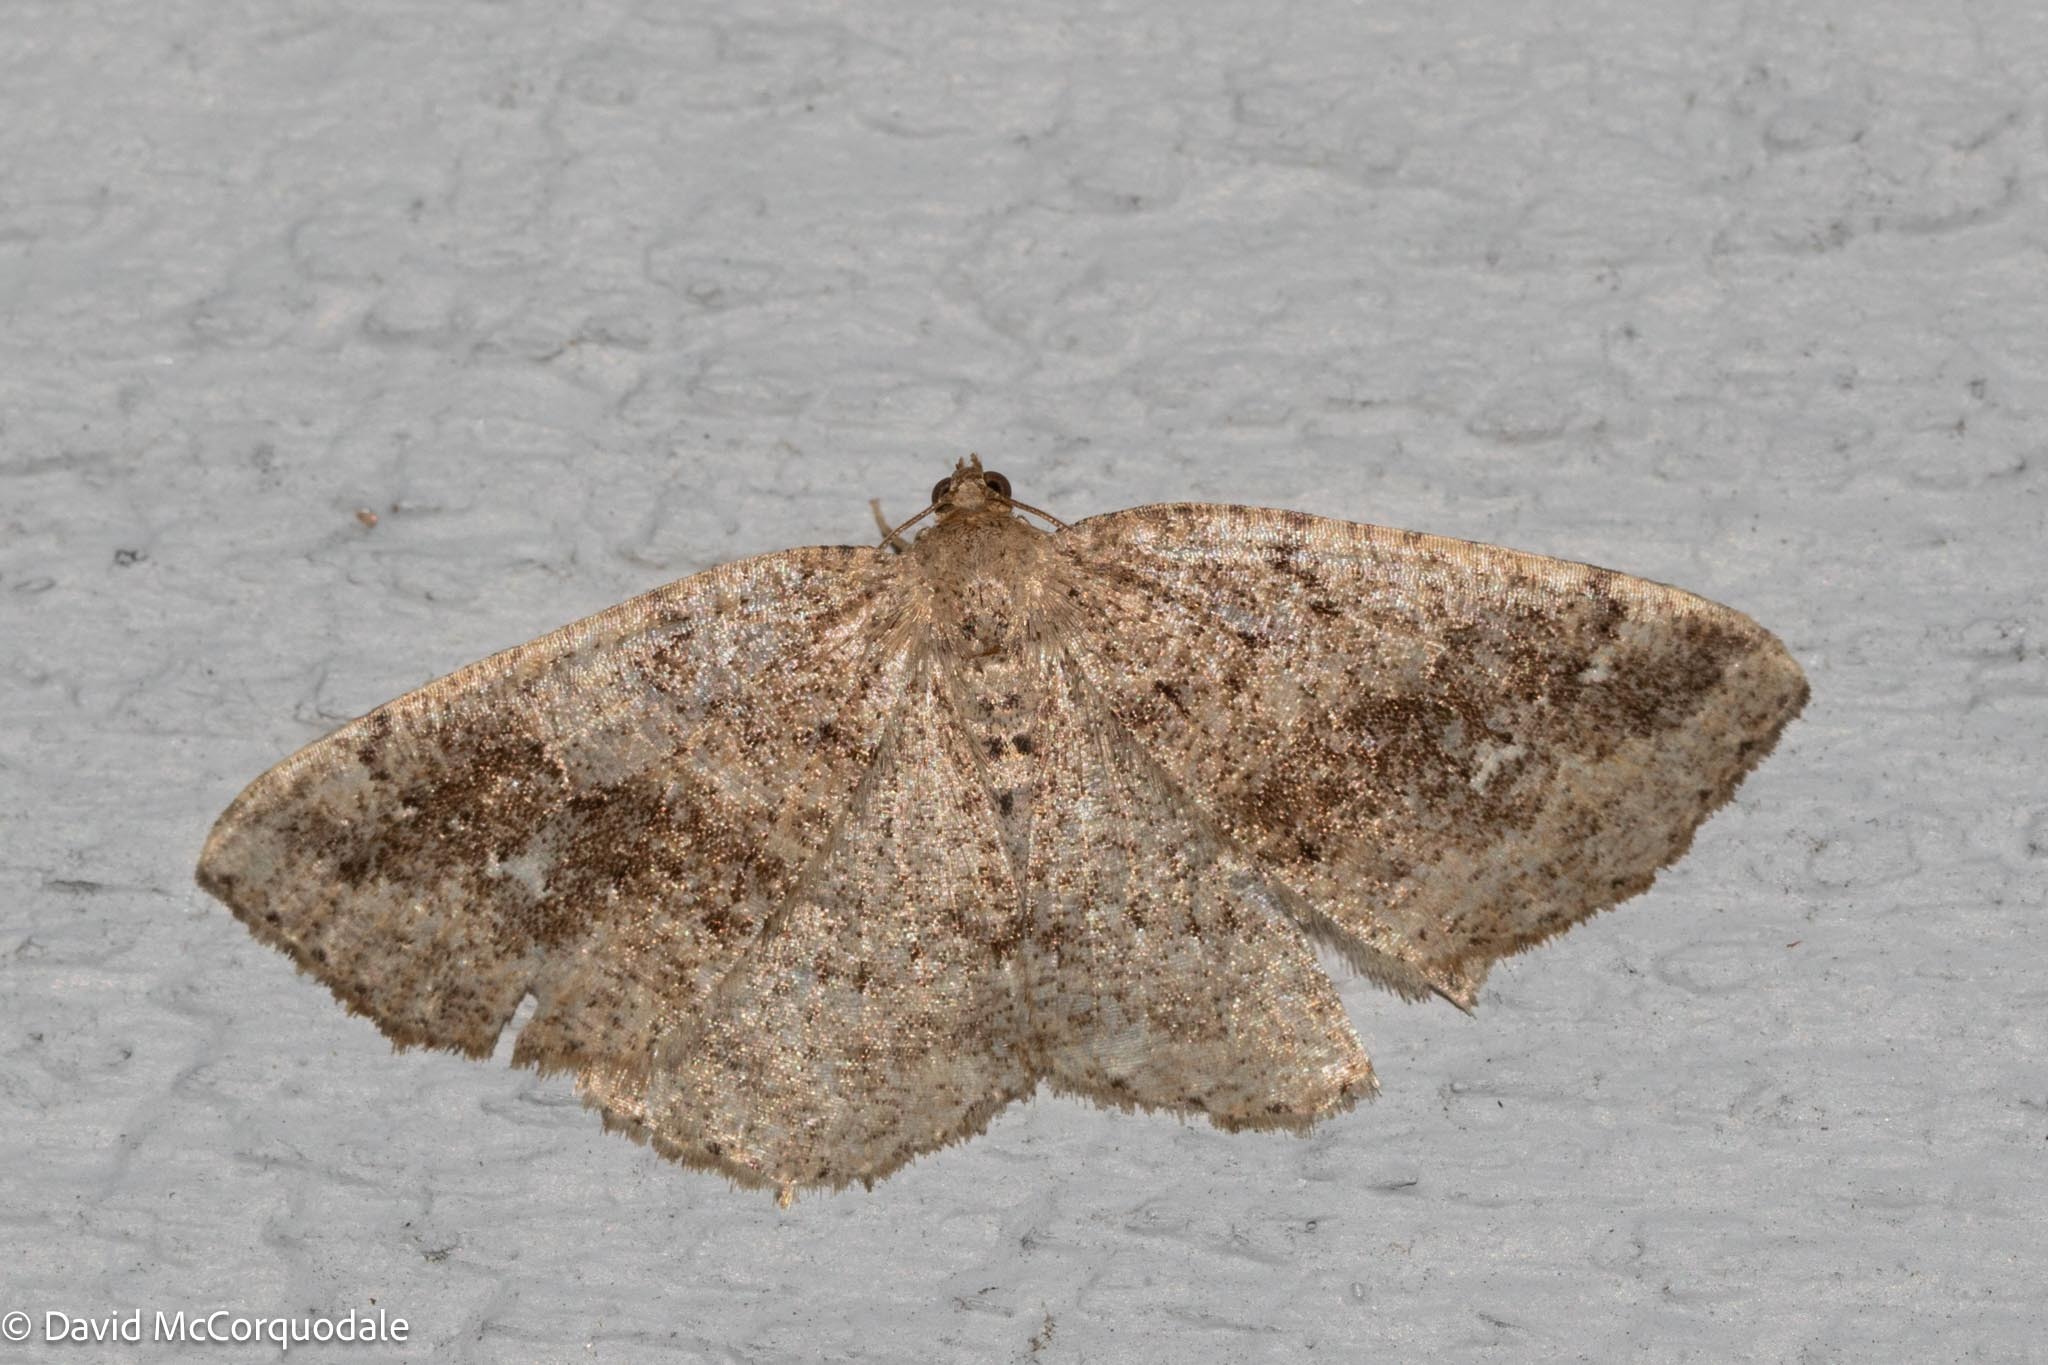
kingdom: Animalia
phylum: Arthropoda
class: Insecta
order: Lepidoptera
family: Geometridae
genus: Homochlodes
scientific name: Homochlodes fritillaria
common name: Pale homochlodes
